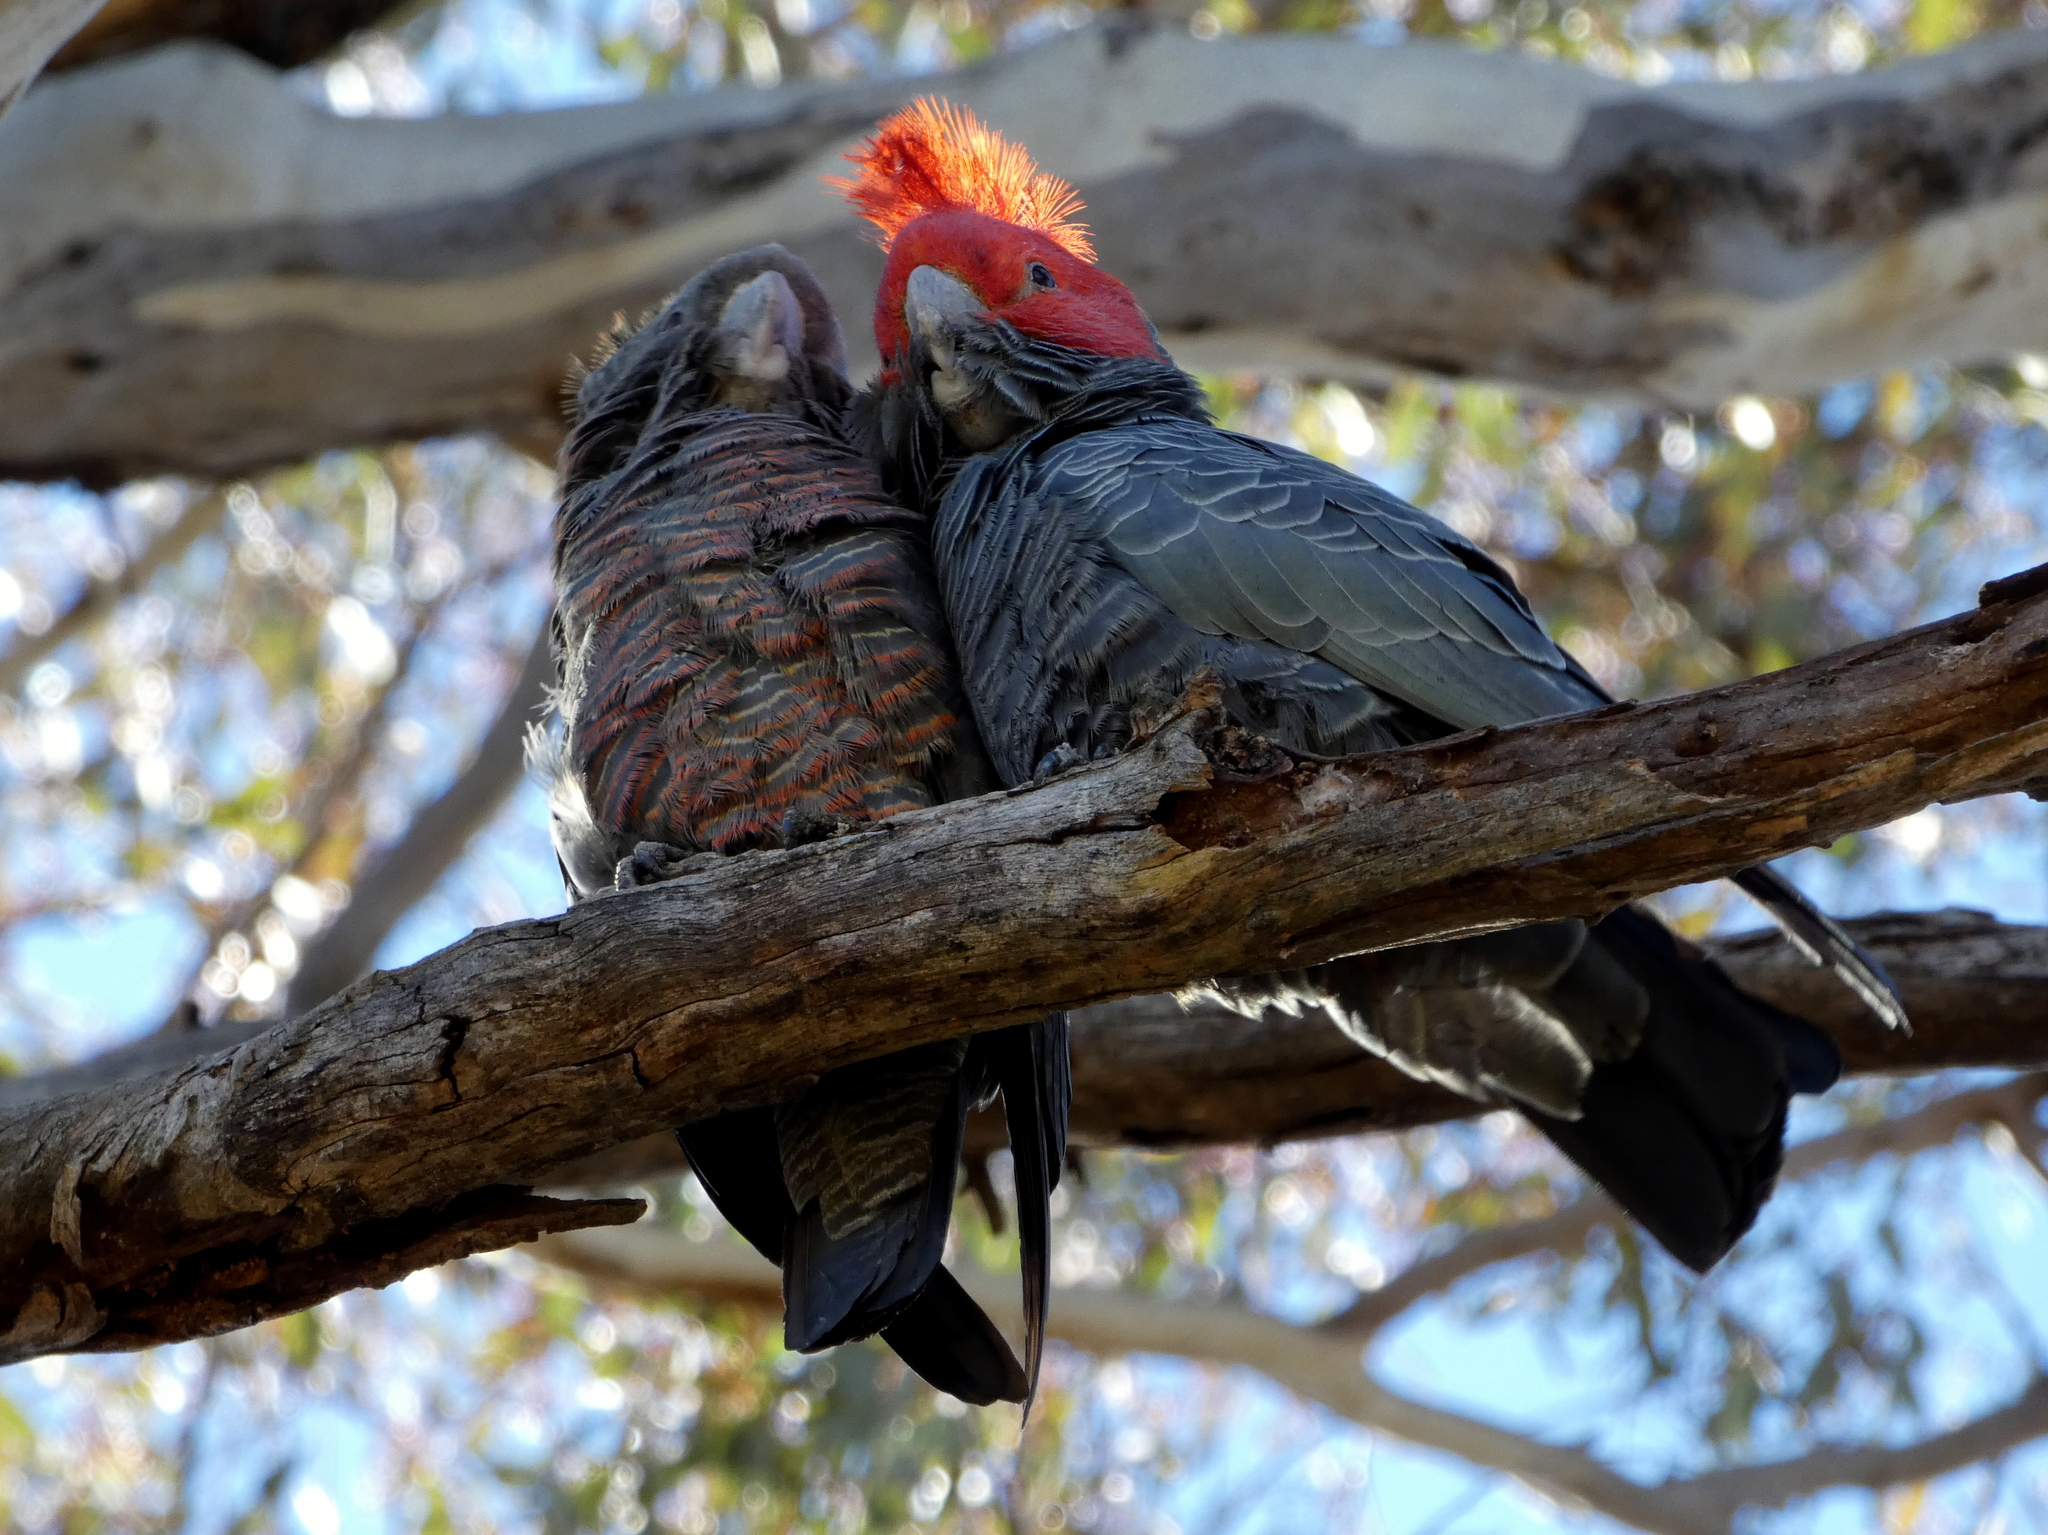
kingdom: Animalia
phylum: Chordata
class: Aves
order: Psittaciformes
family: Psittacidae
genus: Callocephalon
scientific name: Callocephalon fimbriatum
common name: Gang-gang cockatoo
